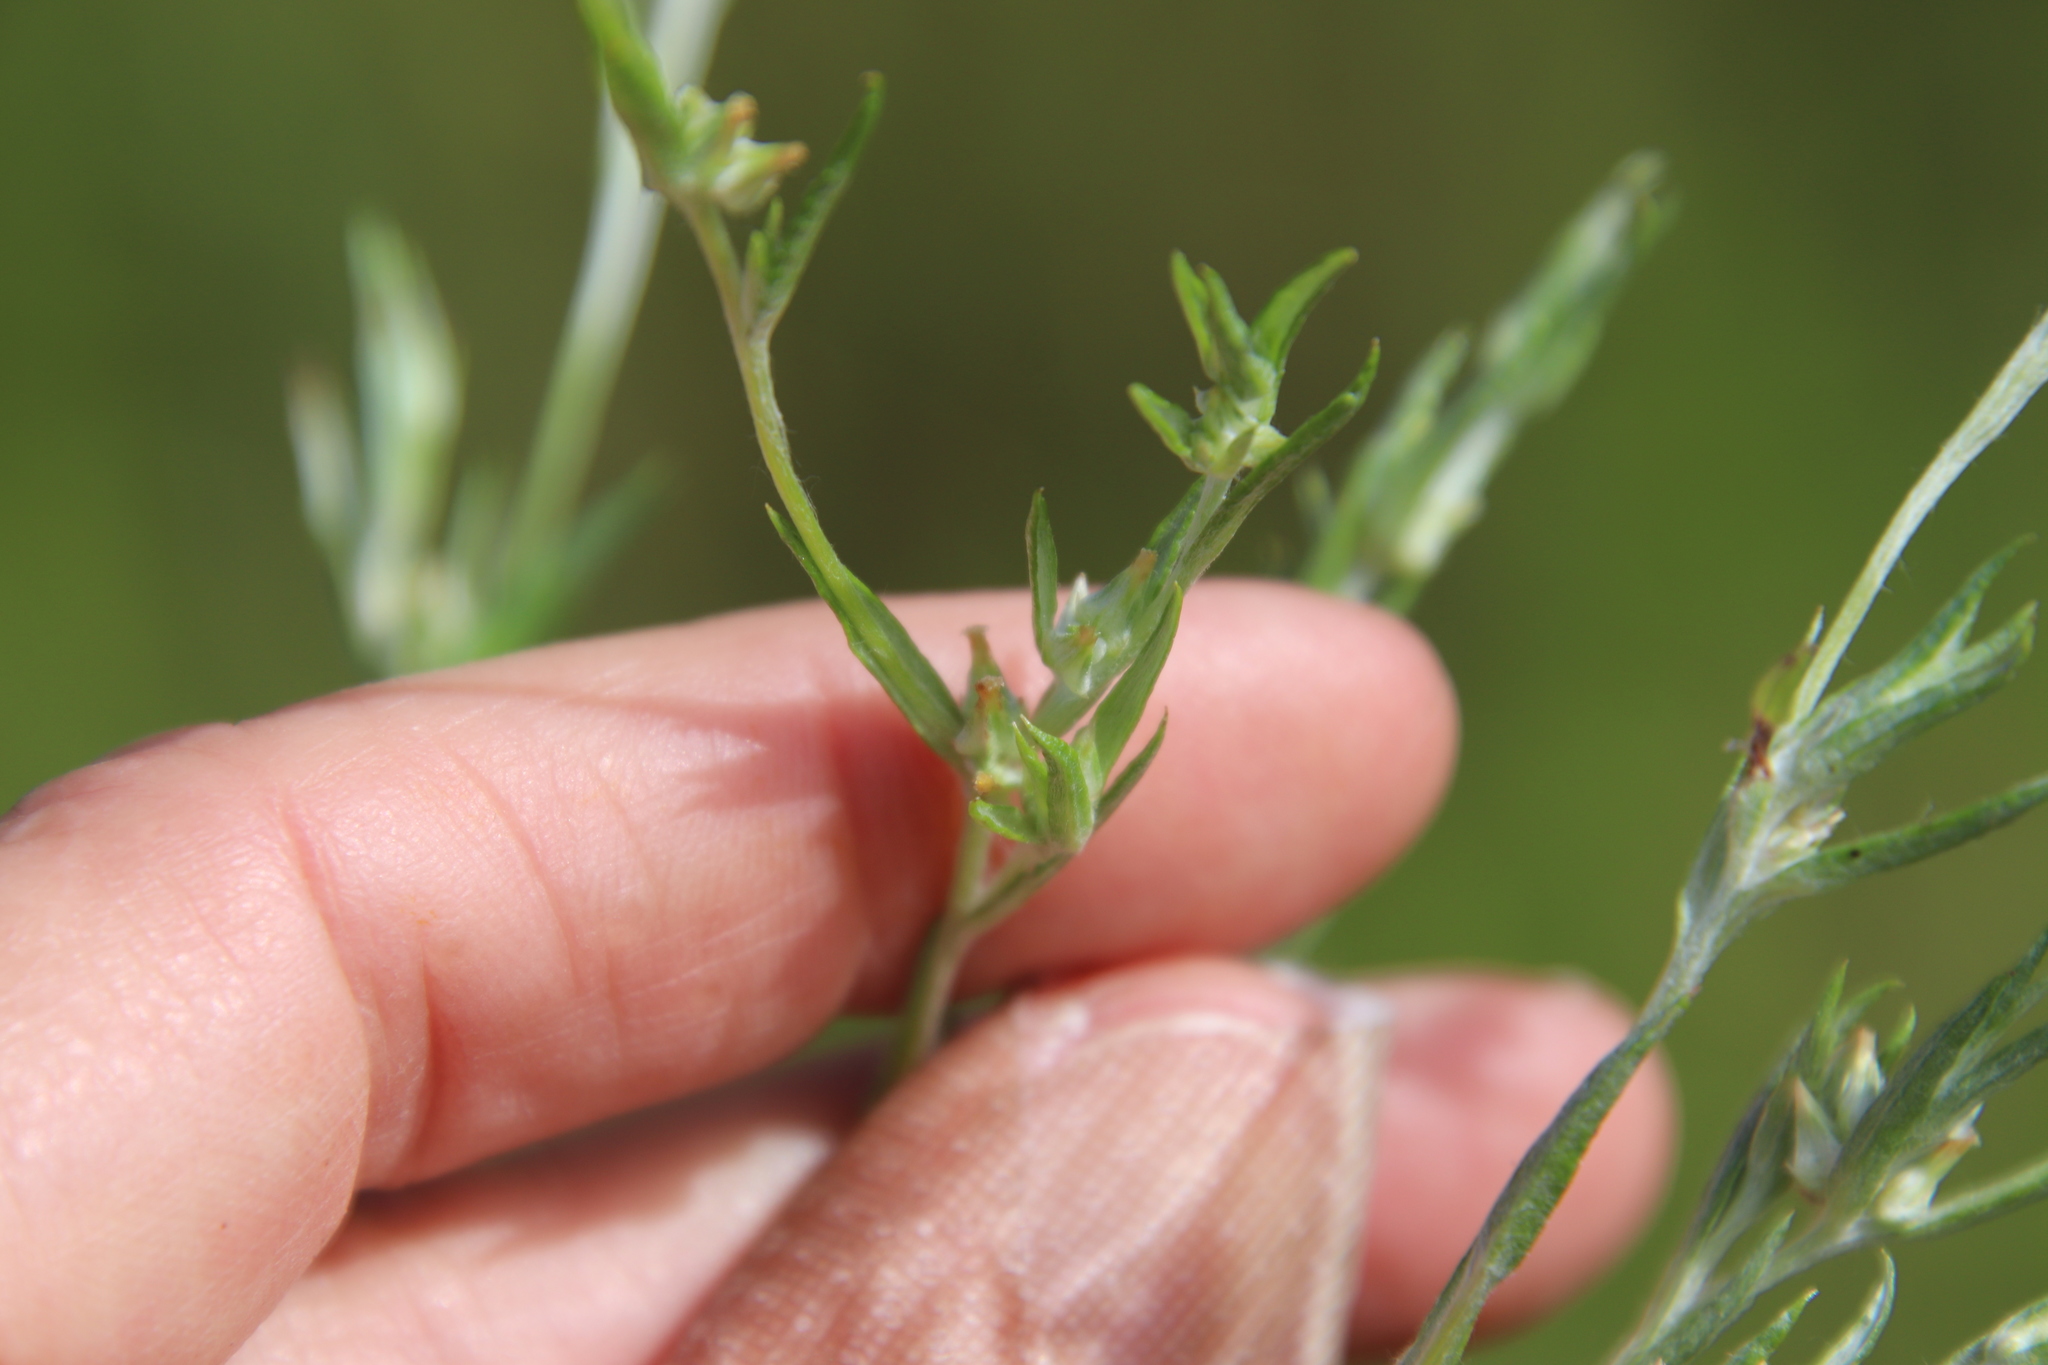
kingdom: Plantae
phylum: Tracheophyta
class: Magnoliopsida
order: Asterales
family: Asteraceae
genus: Logfia
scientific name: Logfia gallica
